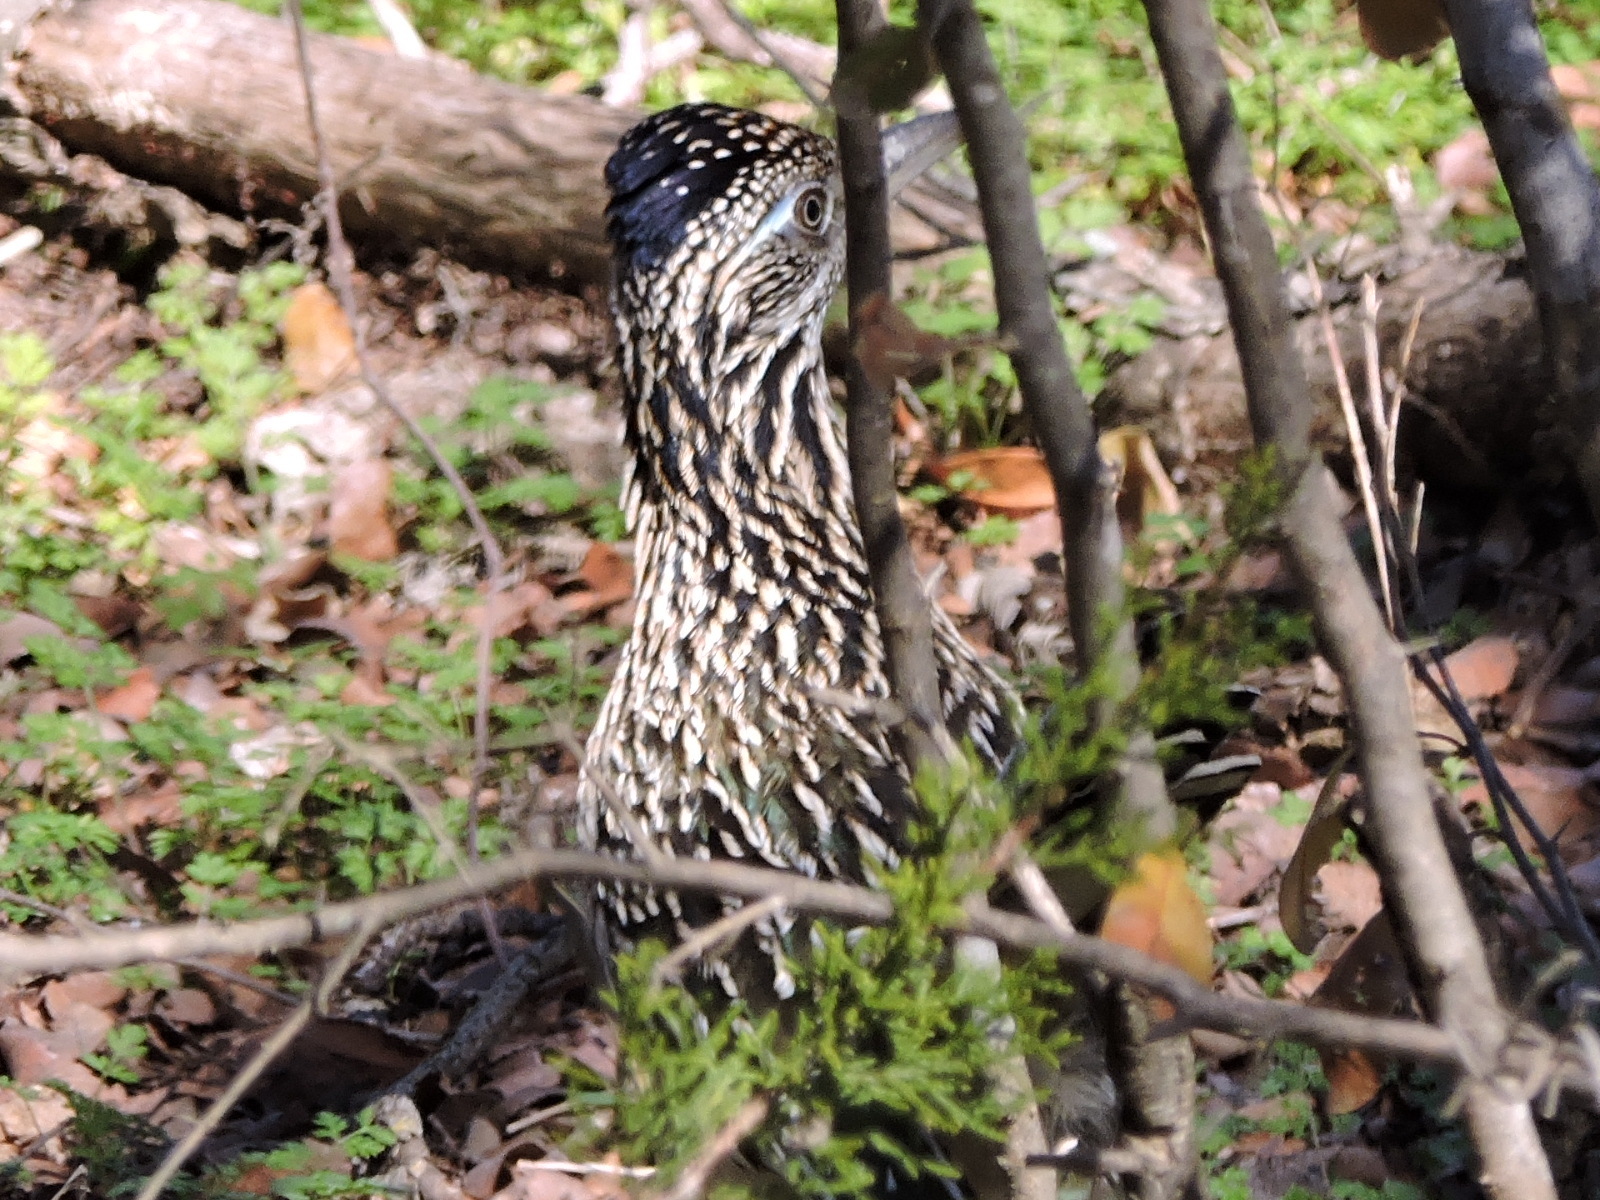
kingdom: Animalia
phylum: Chordata
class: Aves
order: Cuculiformes
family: Cuculidae
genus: Geococcyx
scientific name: Geococcyx californianus
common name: Greater roadrunner
